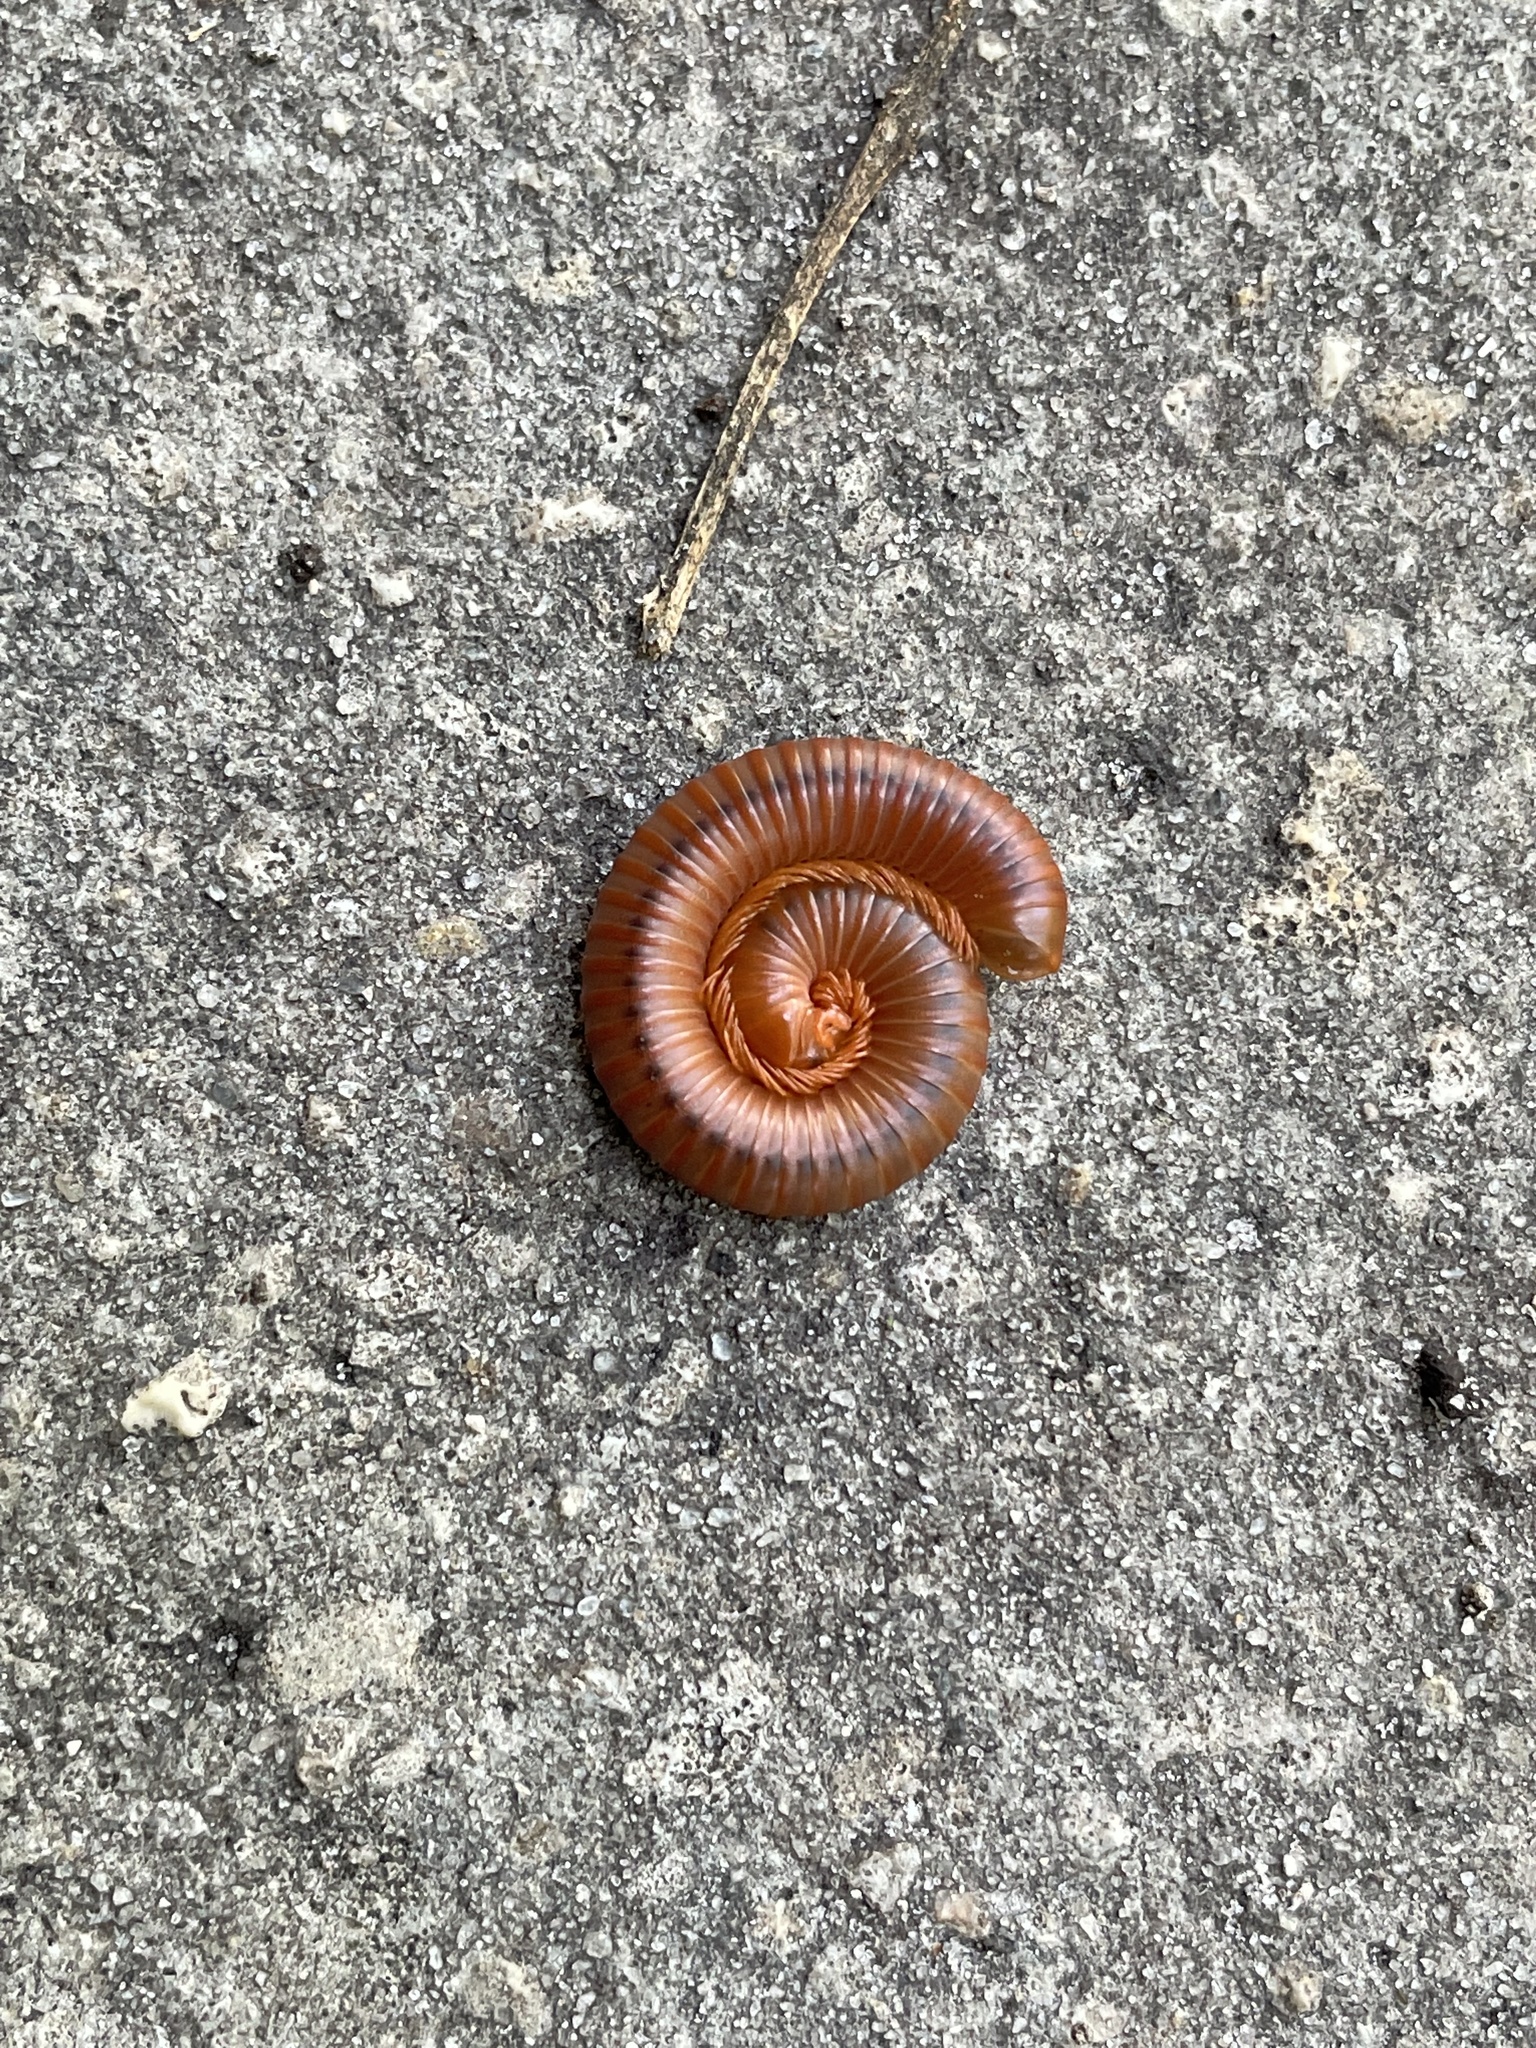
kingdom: Animalia
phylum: Arthropoda
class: Diplopoda
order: Spirobolida
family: Pachybolidae
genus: Trigoniulus
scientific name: Trigoniulus corallinus
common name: Millipede
